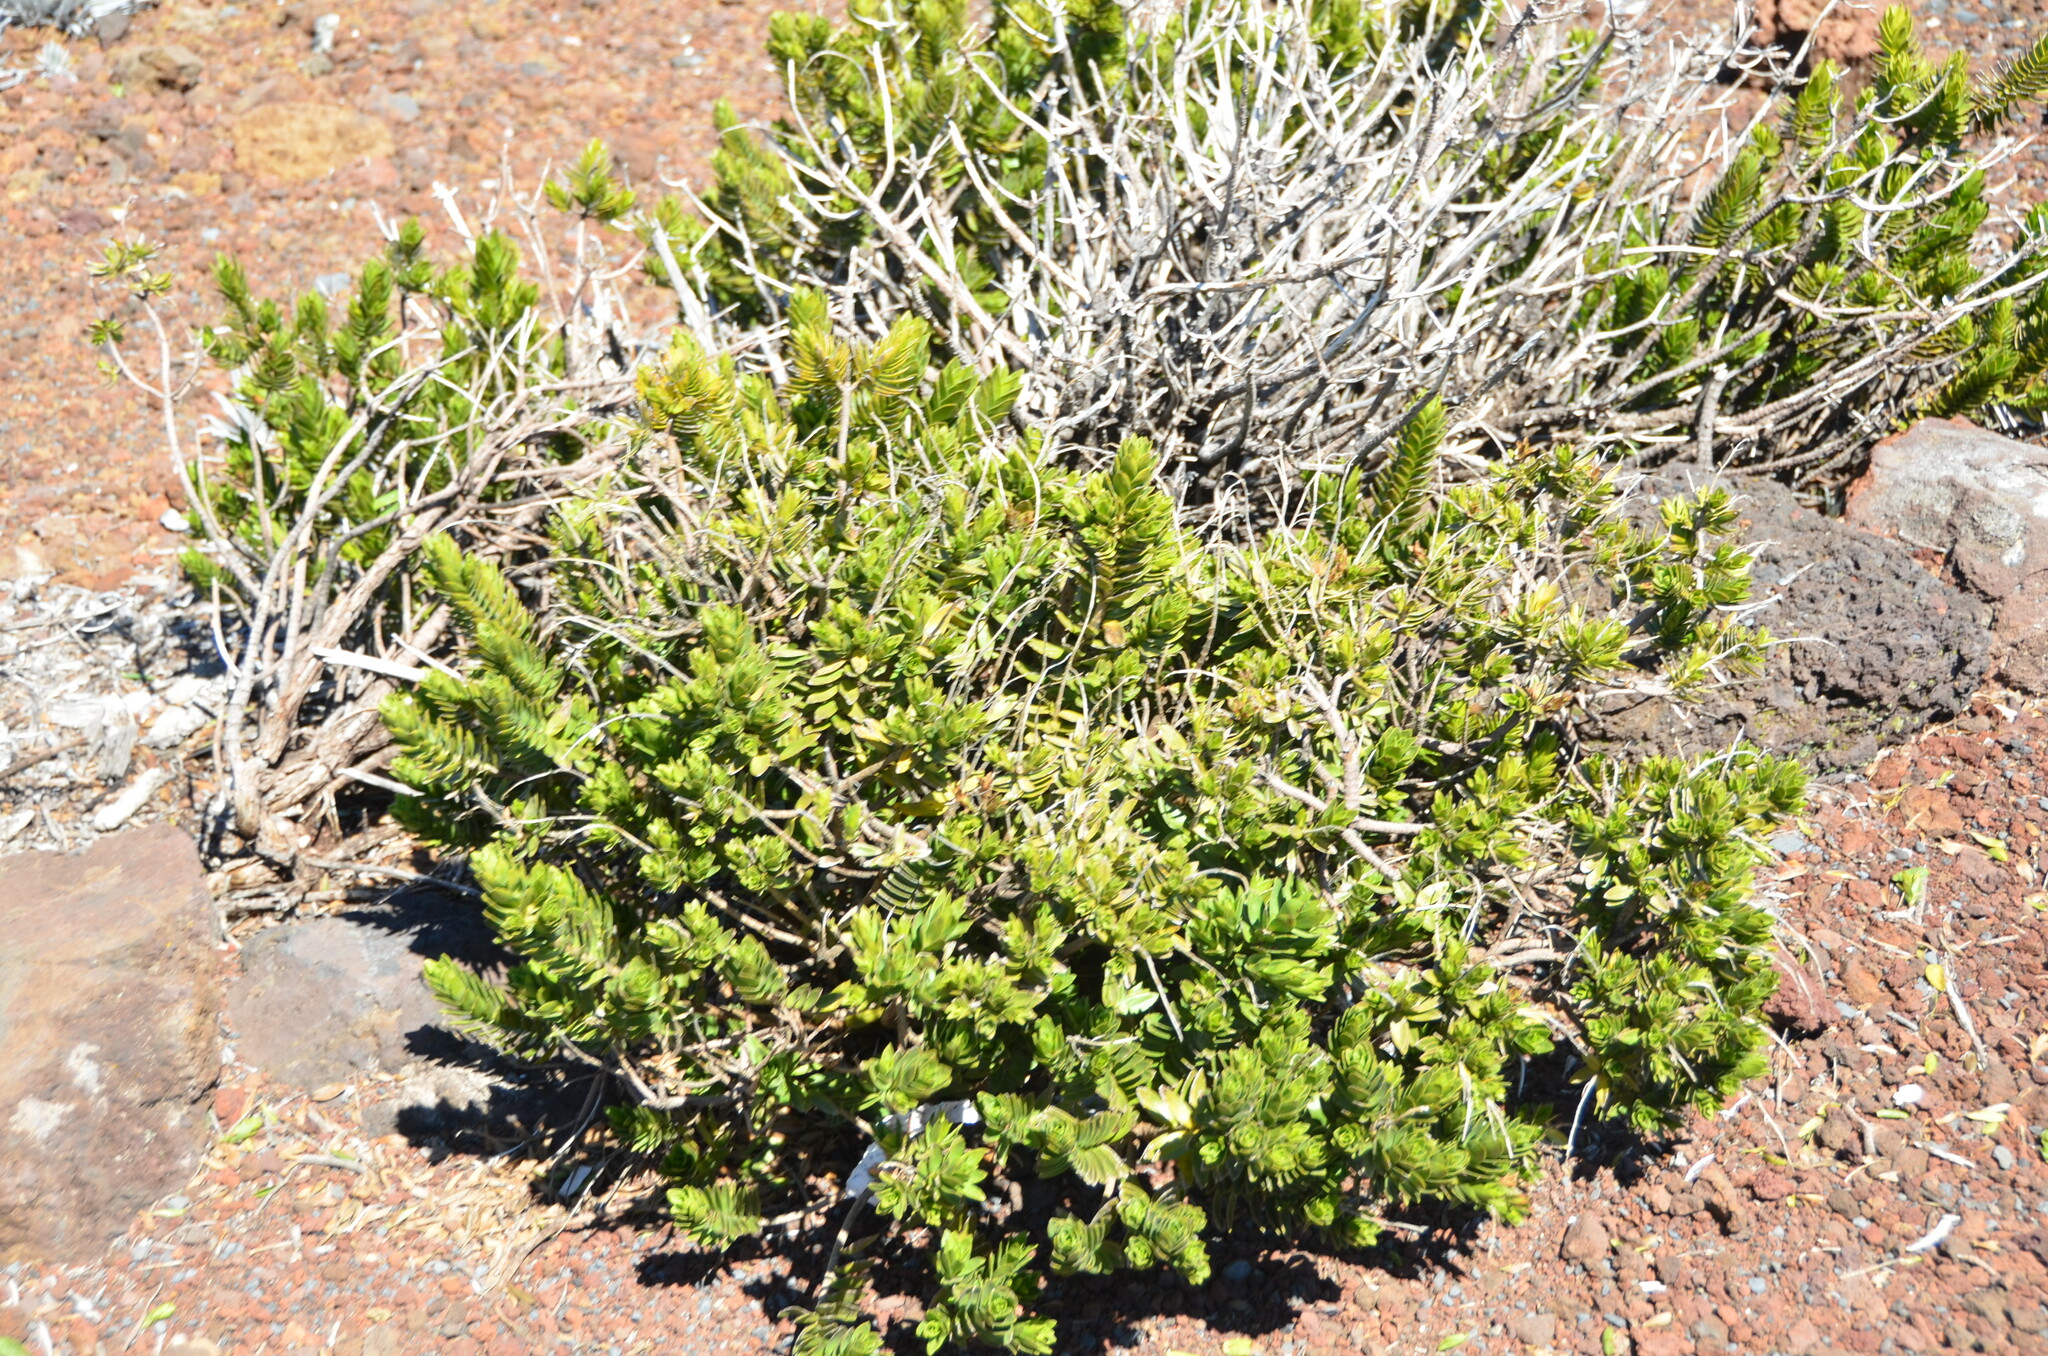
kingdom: Plantae
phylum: Tracheophyta
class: Magnoliopsida
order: Asterales
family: Asteraceae
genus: Dubautia
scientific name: Dubautia menziesii
